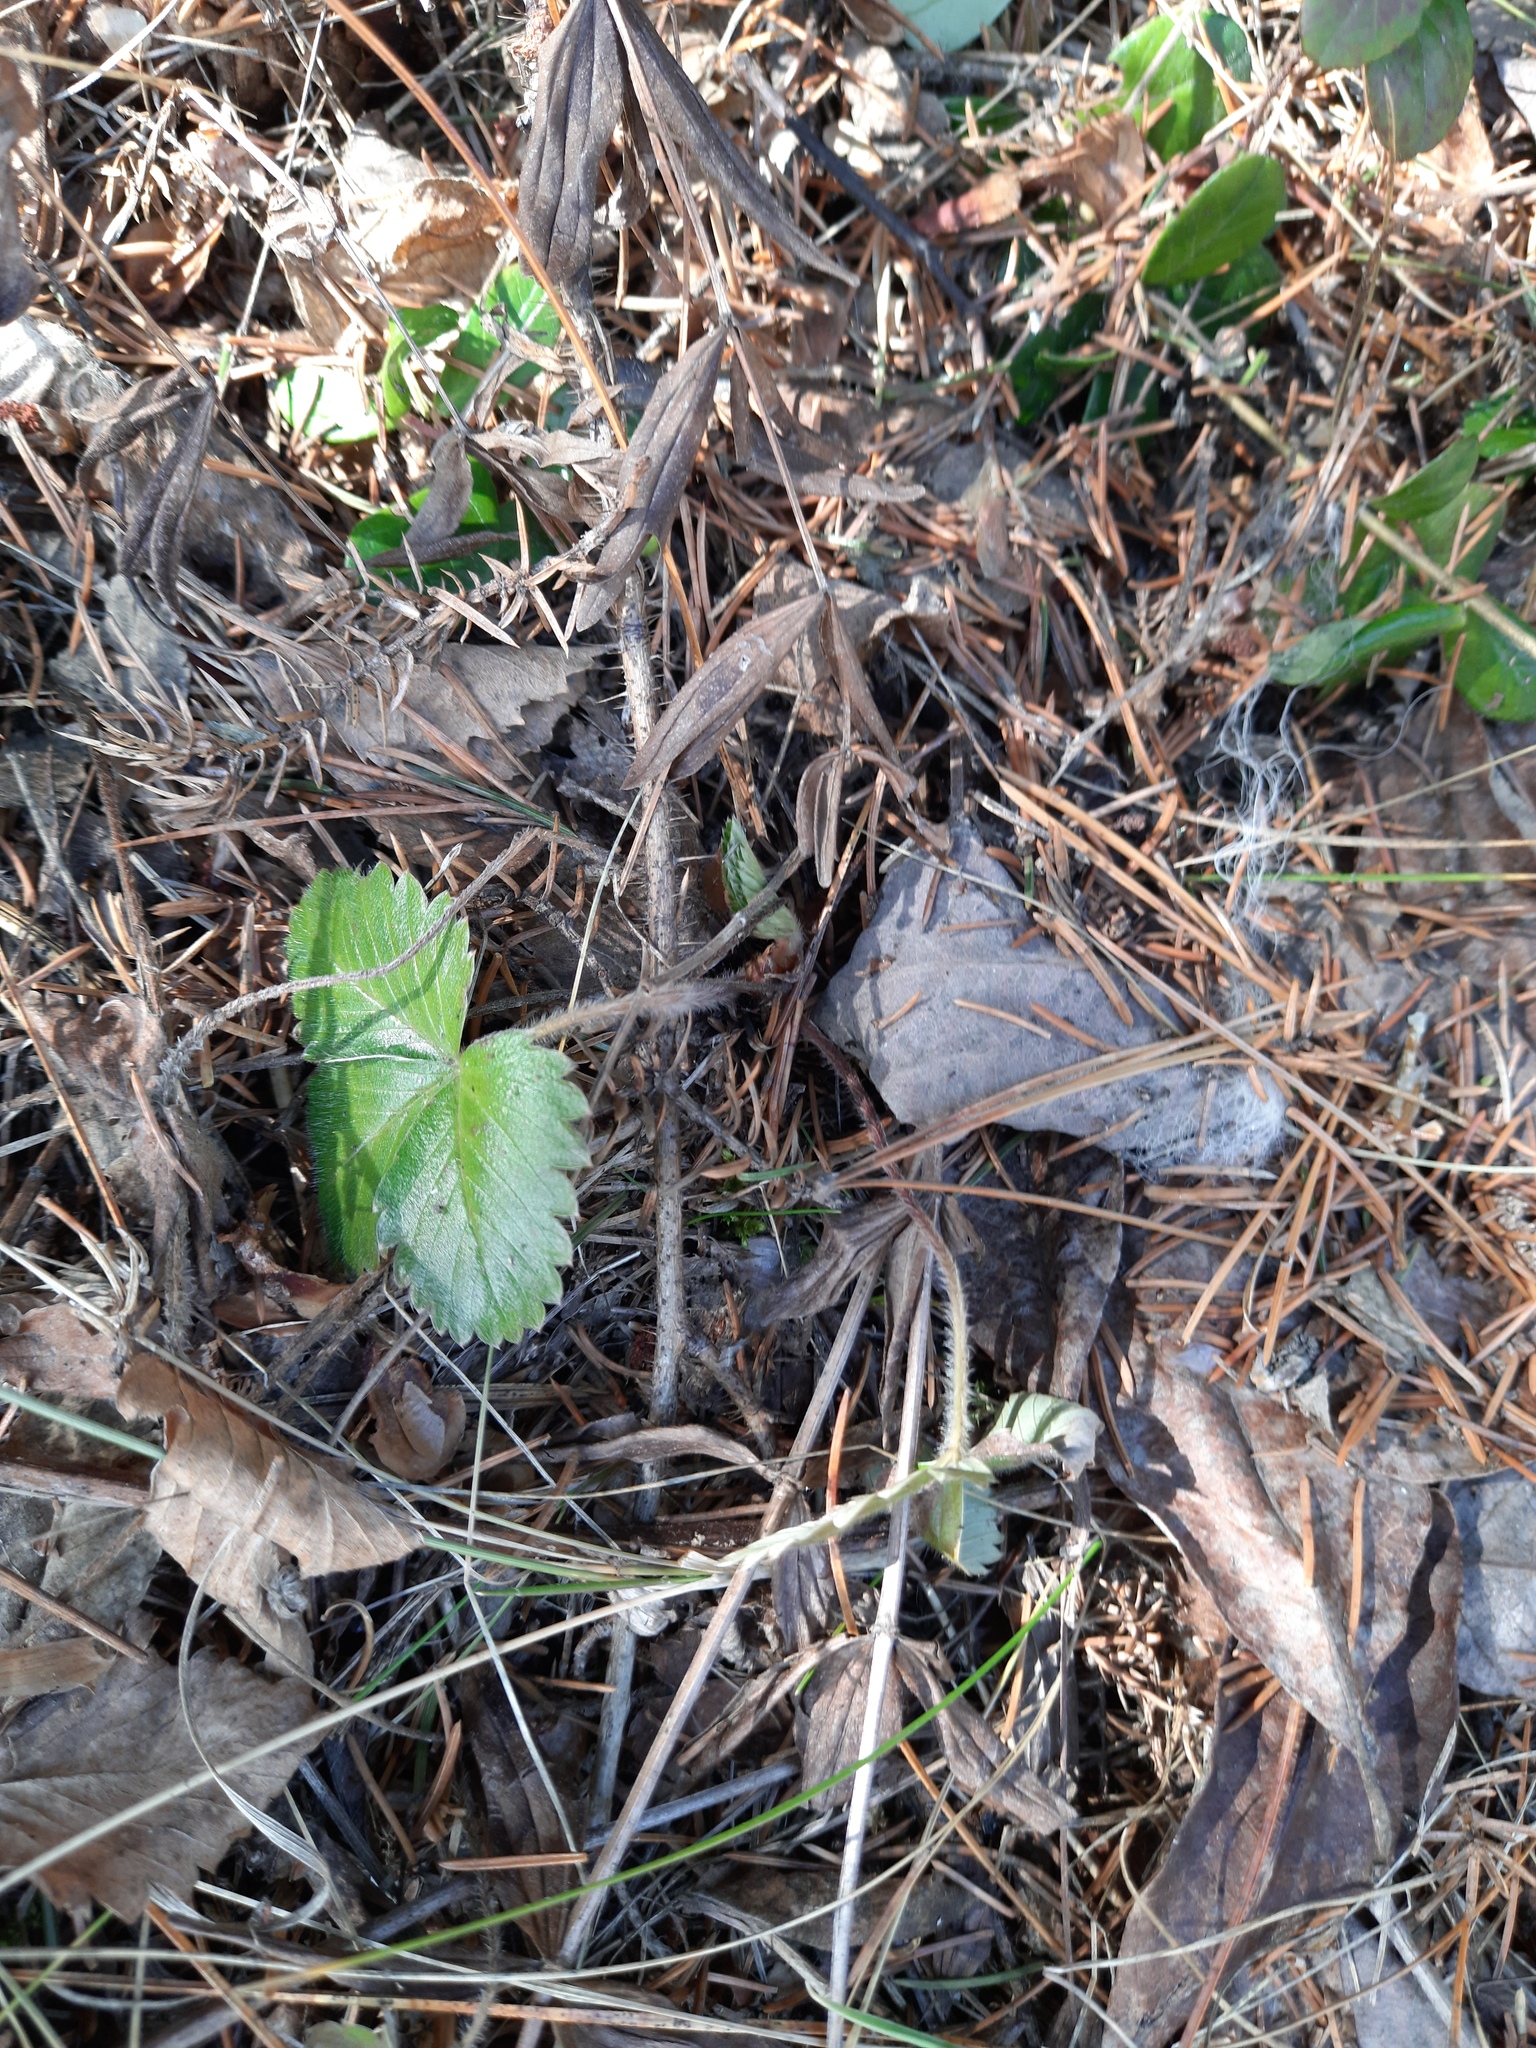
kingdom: Plantae
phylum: Tracheophyta
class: Magnoliopsida
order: Rosales
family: Rosaceae
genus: Fragaria
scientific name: Fragaria vesca
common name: Wild strawberry
